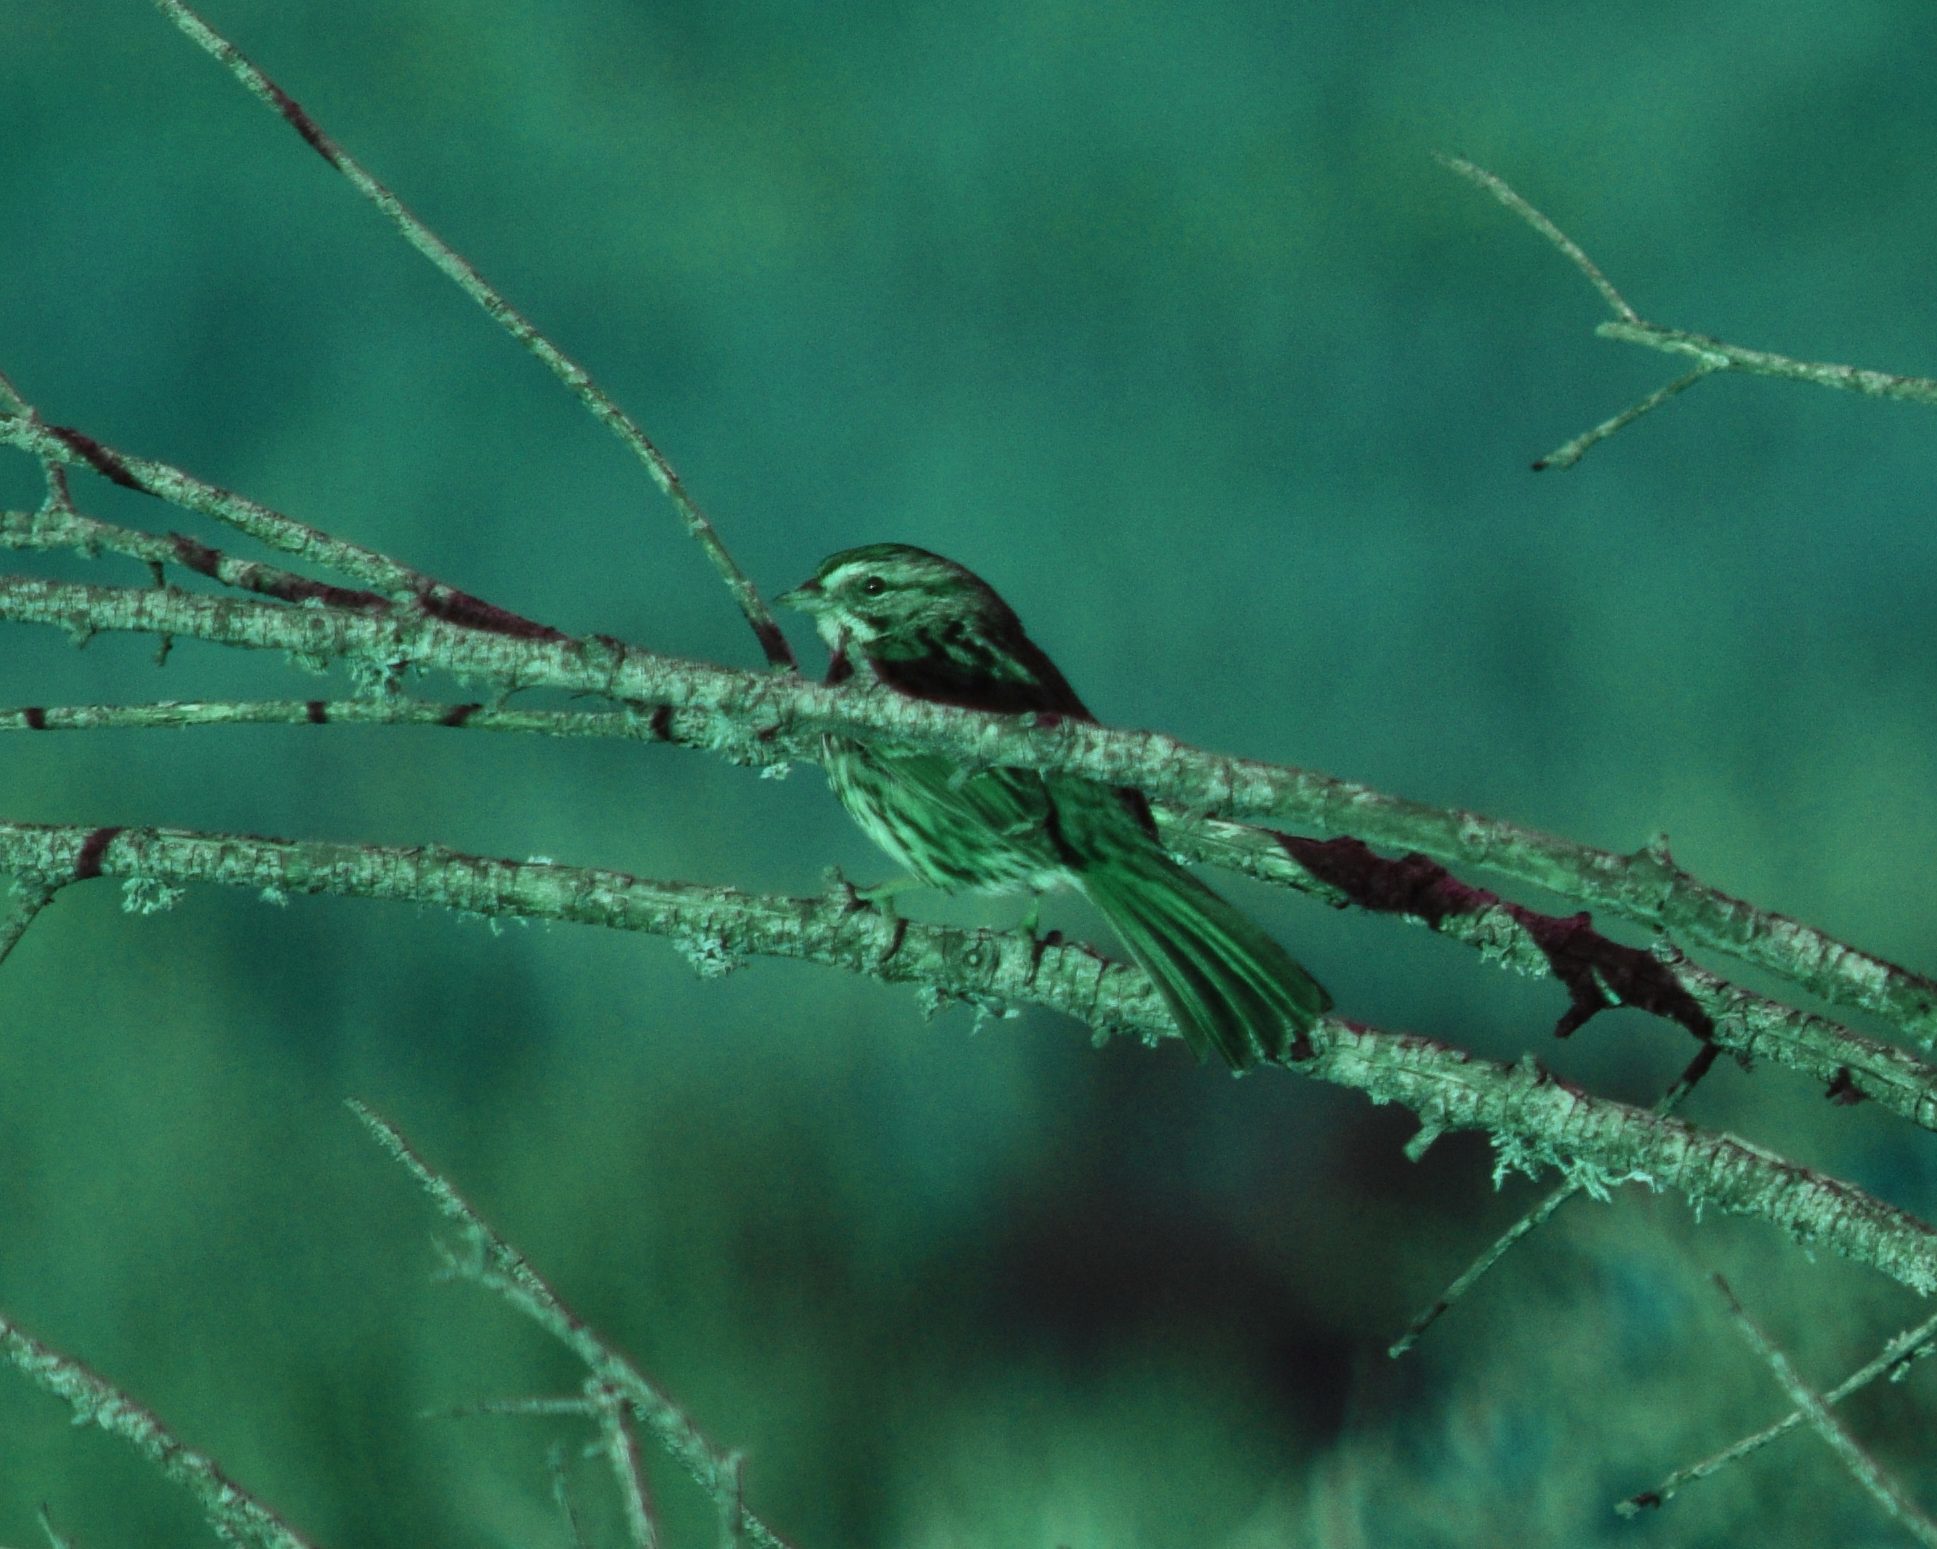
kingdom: Animalia
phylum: Chordata
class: Aves
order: Passeriformes
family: Passerellidae
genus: Melospiza
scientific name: Melospiza melodia
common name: Song sparrow
